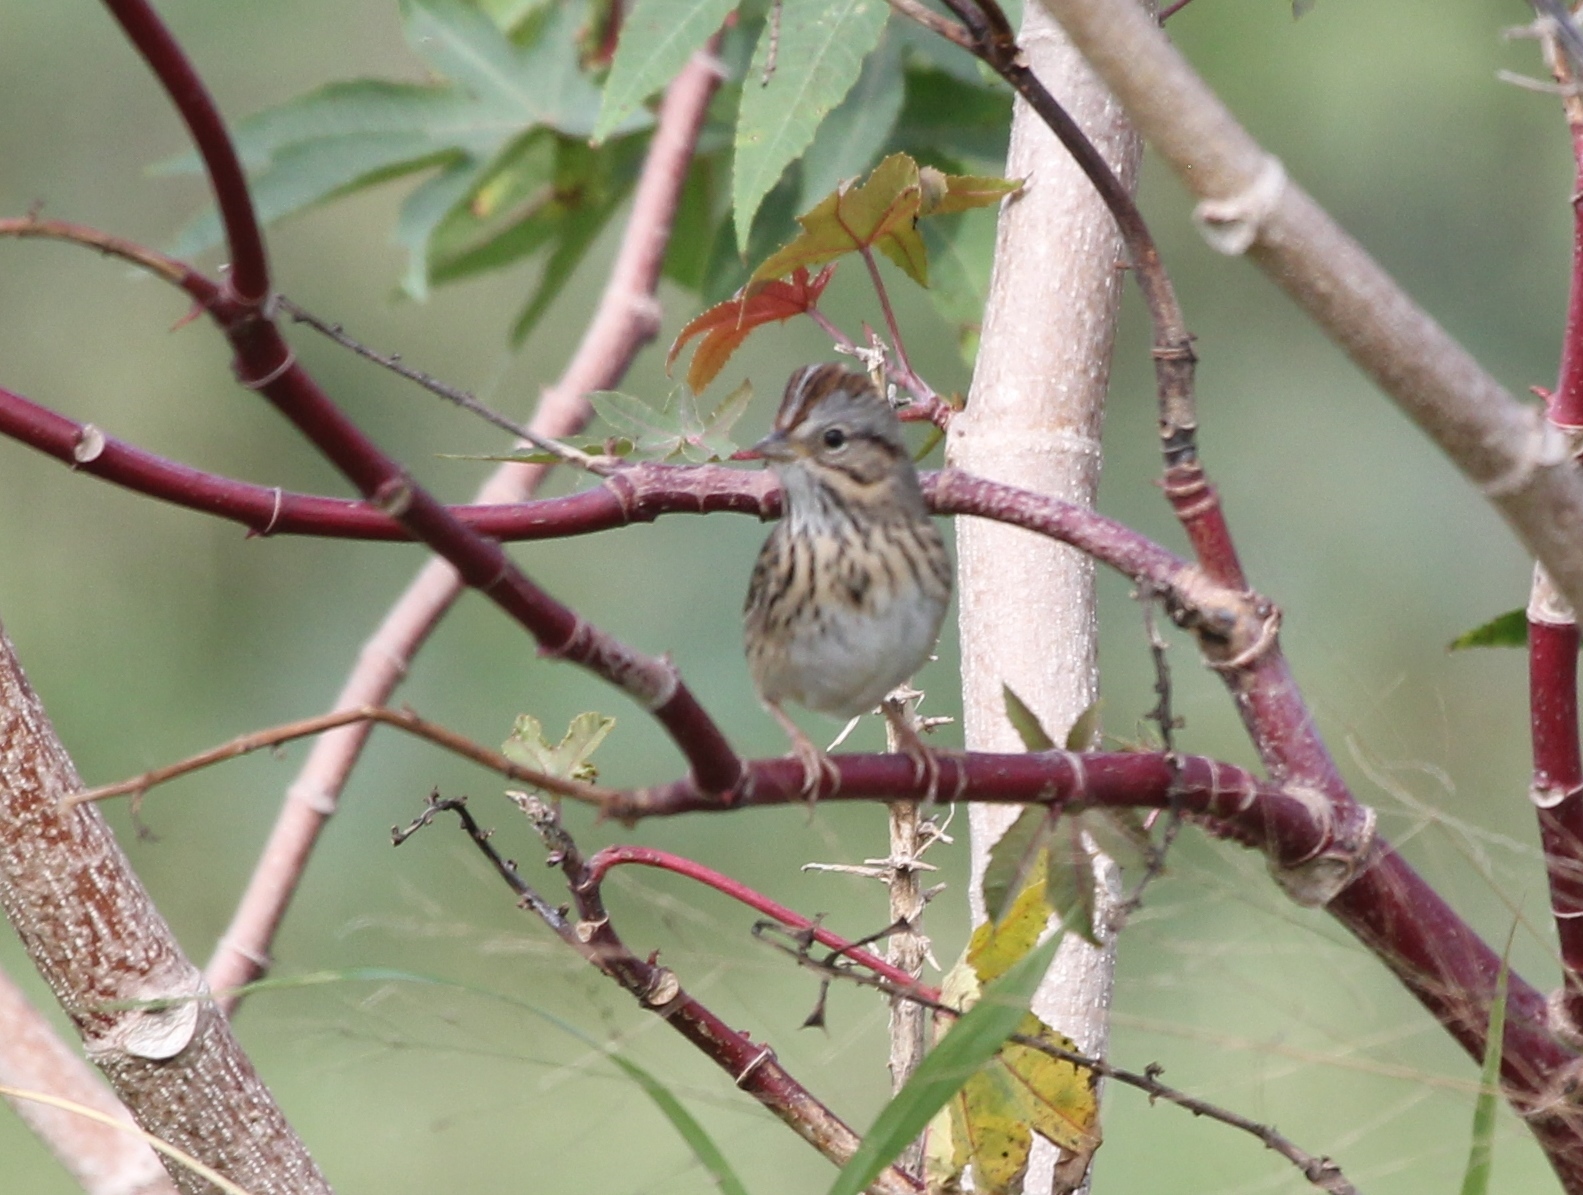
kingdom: Animalia
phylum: Chordata
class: Aves
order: Passeriformes
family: Passerellidae
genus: Melospiza
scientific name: Melospiza lincolnii
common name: Lincoln's sparrow
